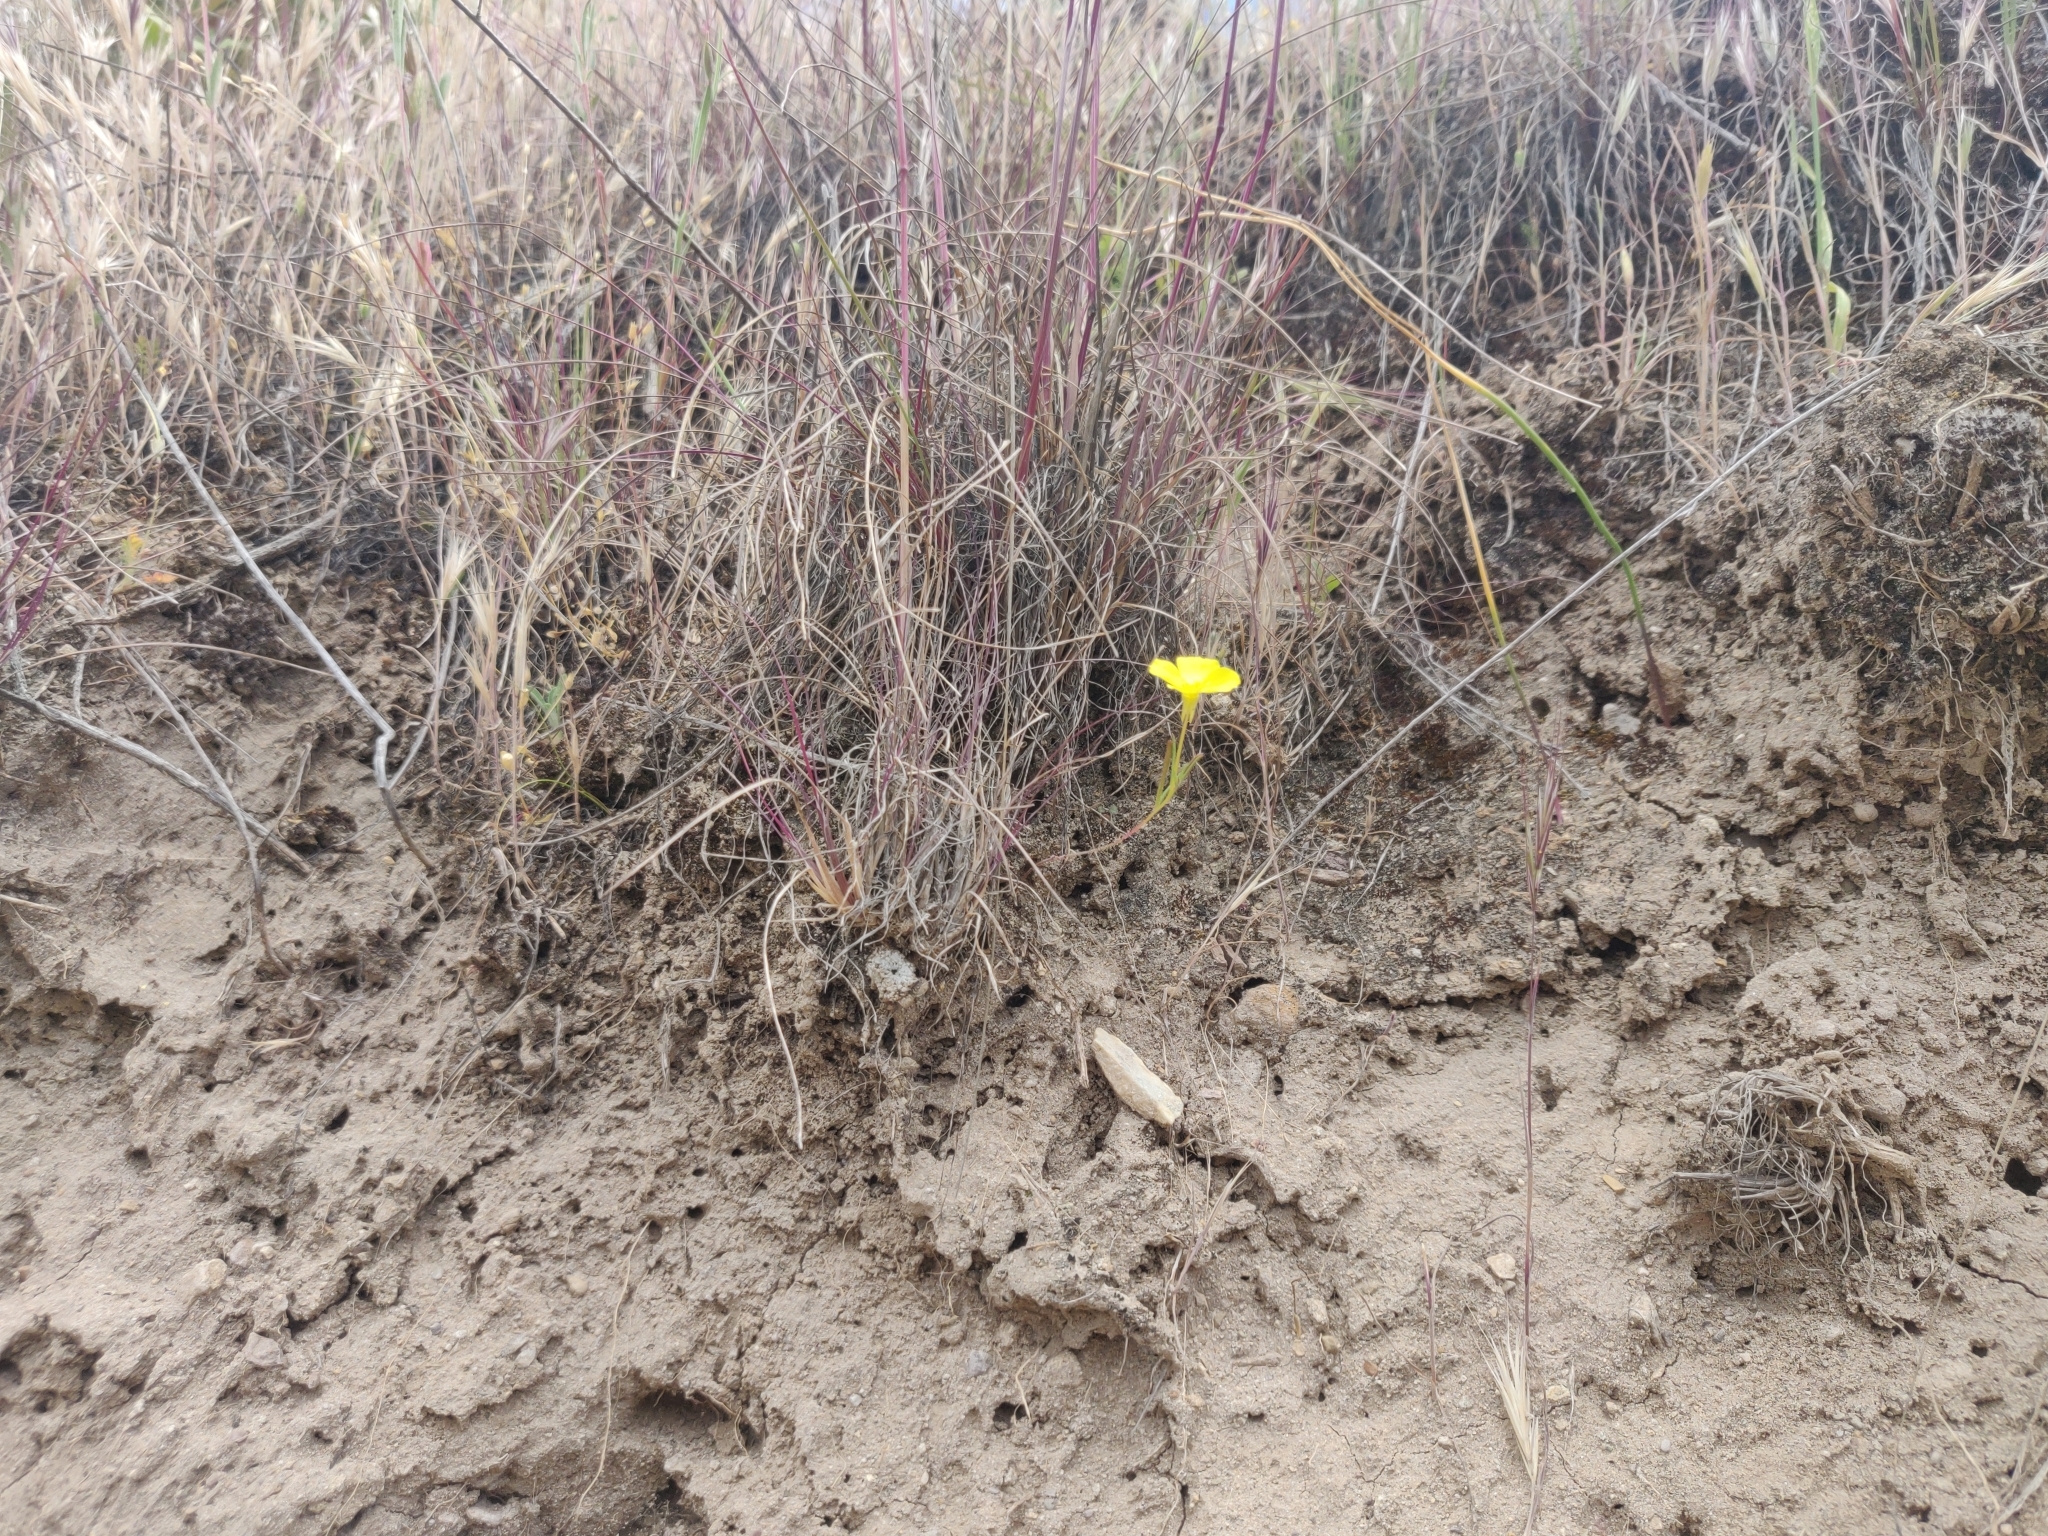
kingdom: Plantae
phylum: Tracheophyta
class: Magnoliopsida
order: Myrtales
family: Onagraceae
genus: Camissonia
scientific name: Camissonia campestris
